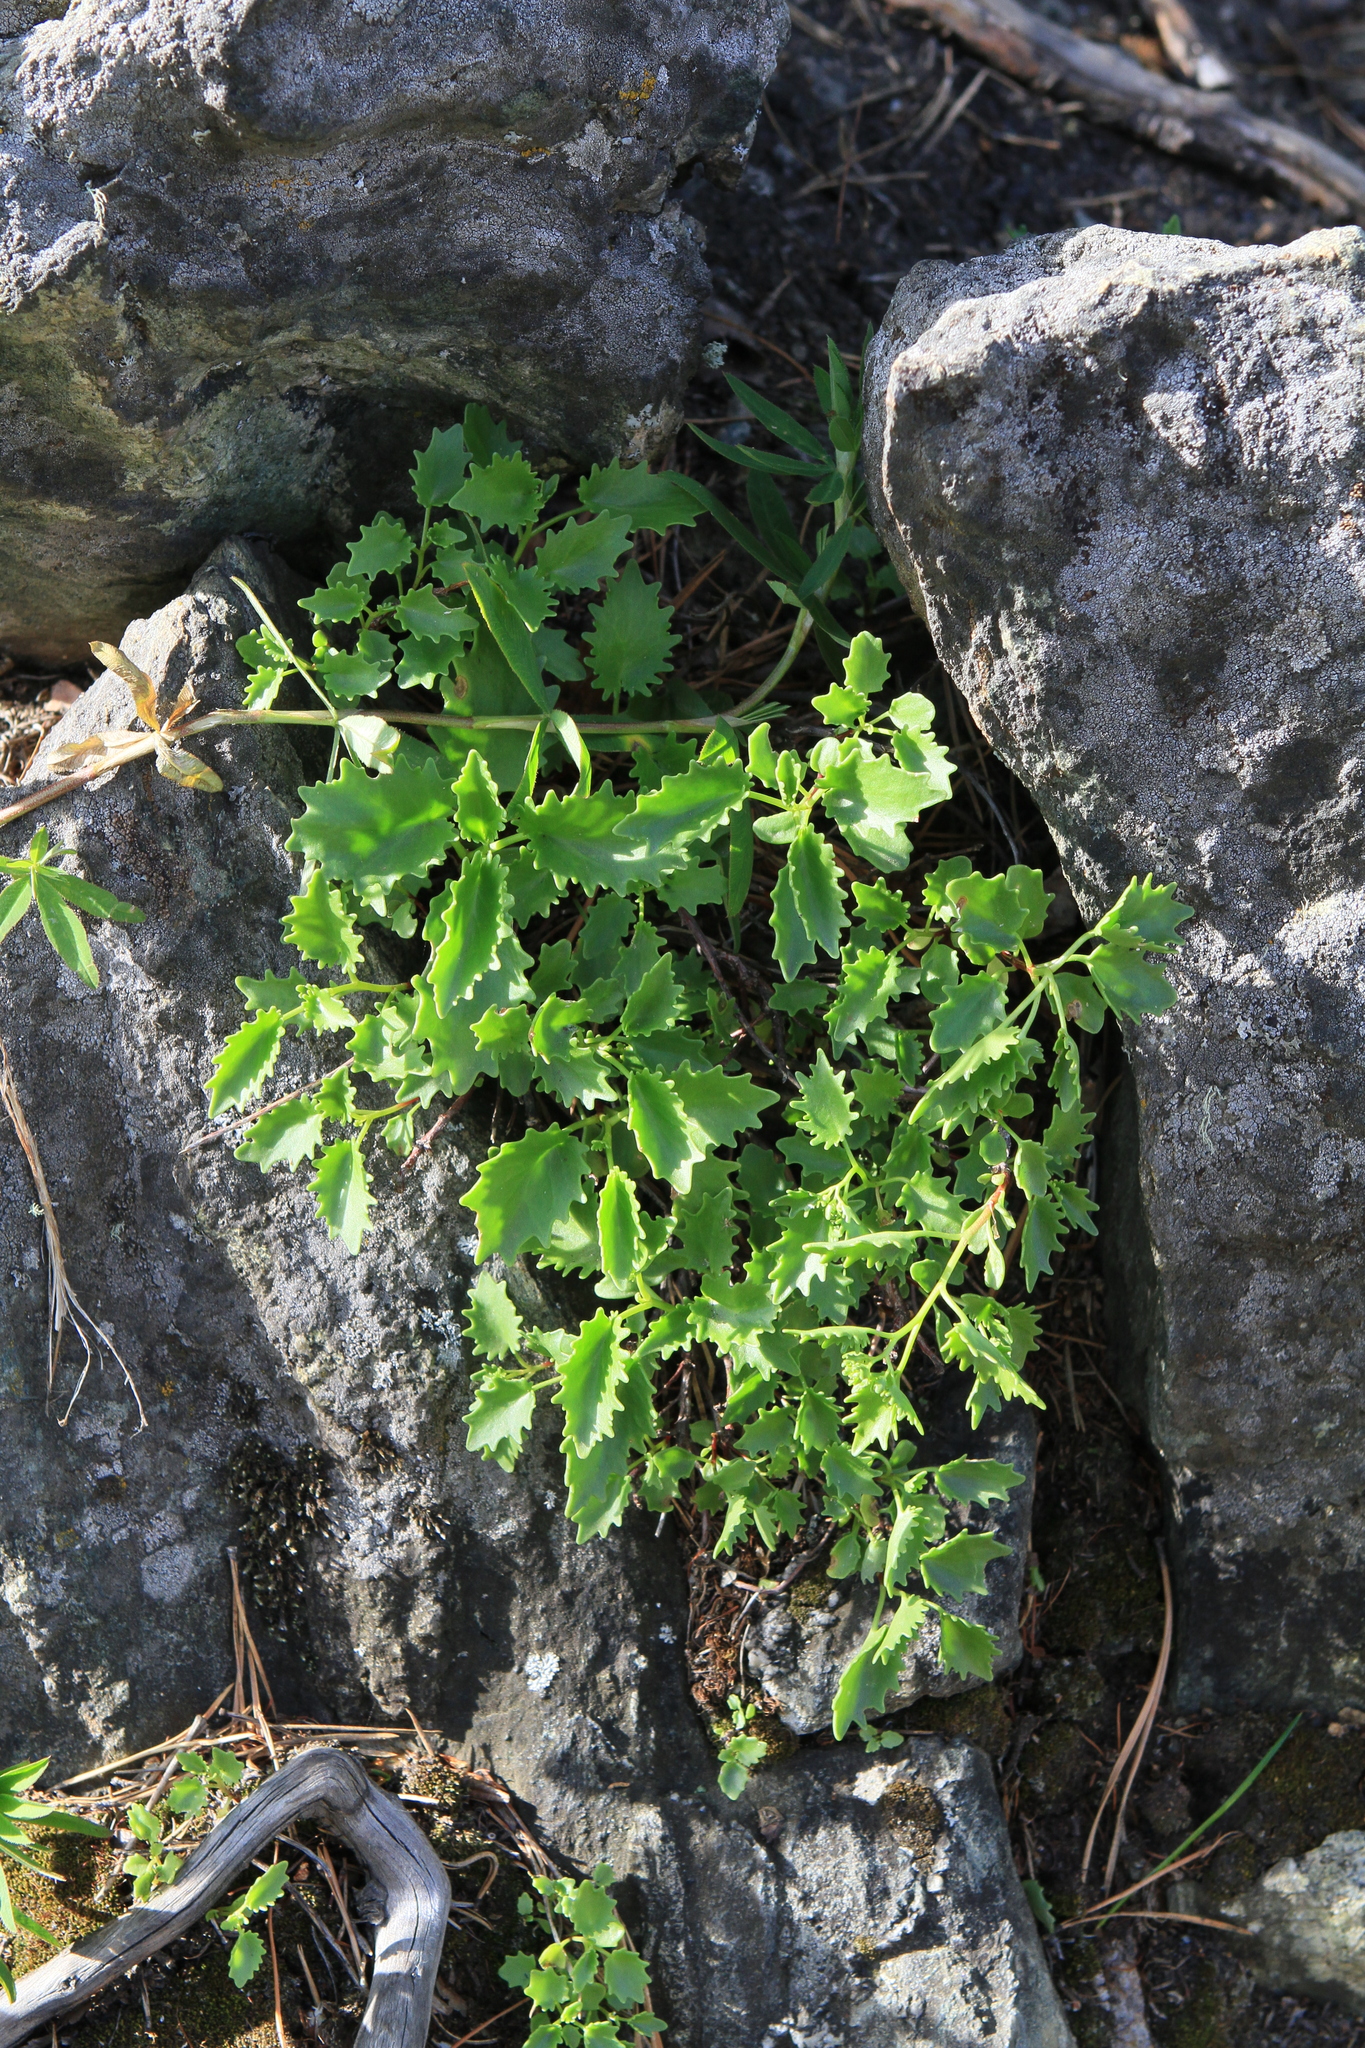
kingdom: Plantae
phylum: Tracheophyta
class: Magnoliopsida
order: Saxifragales
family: Crassulaceae
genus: Hylotelephium
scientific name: Hylotelephium populifolium
